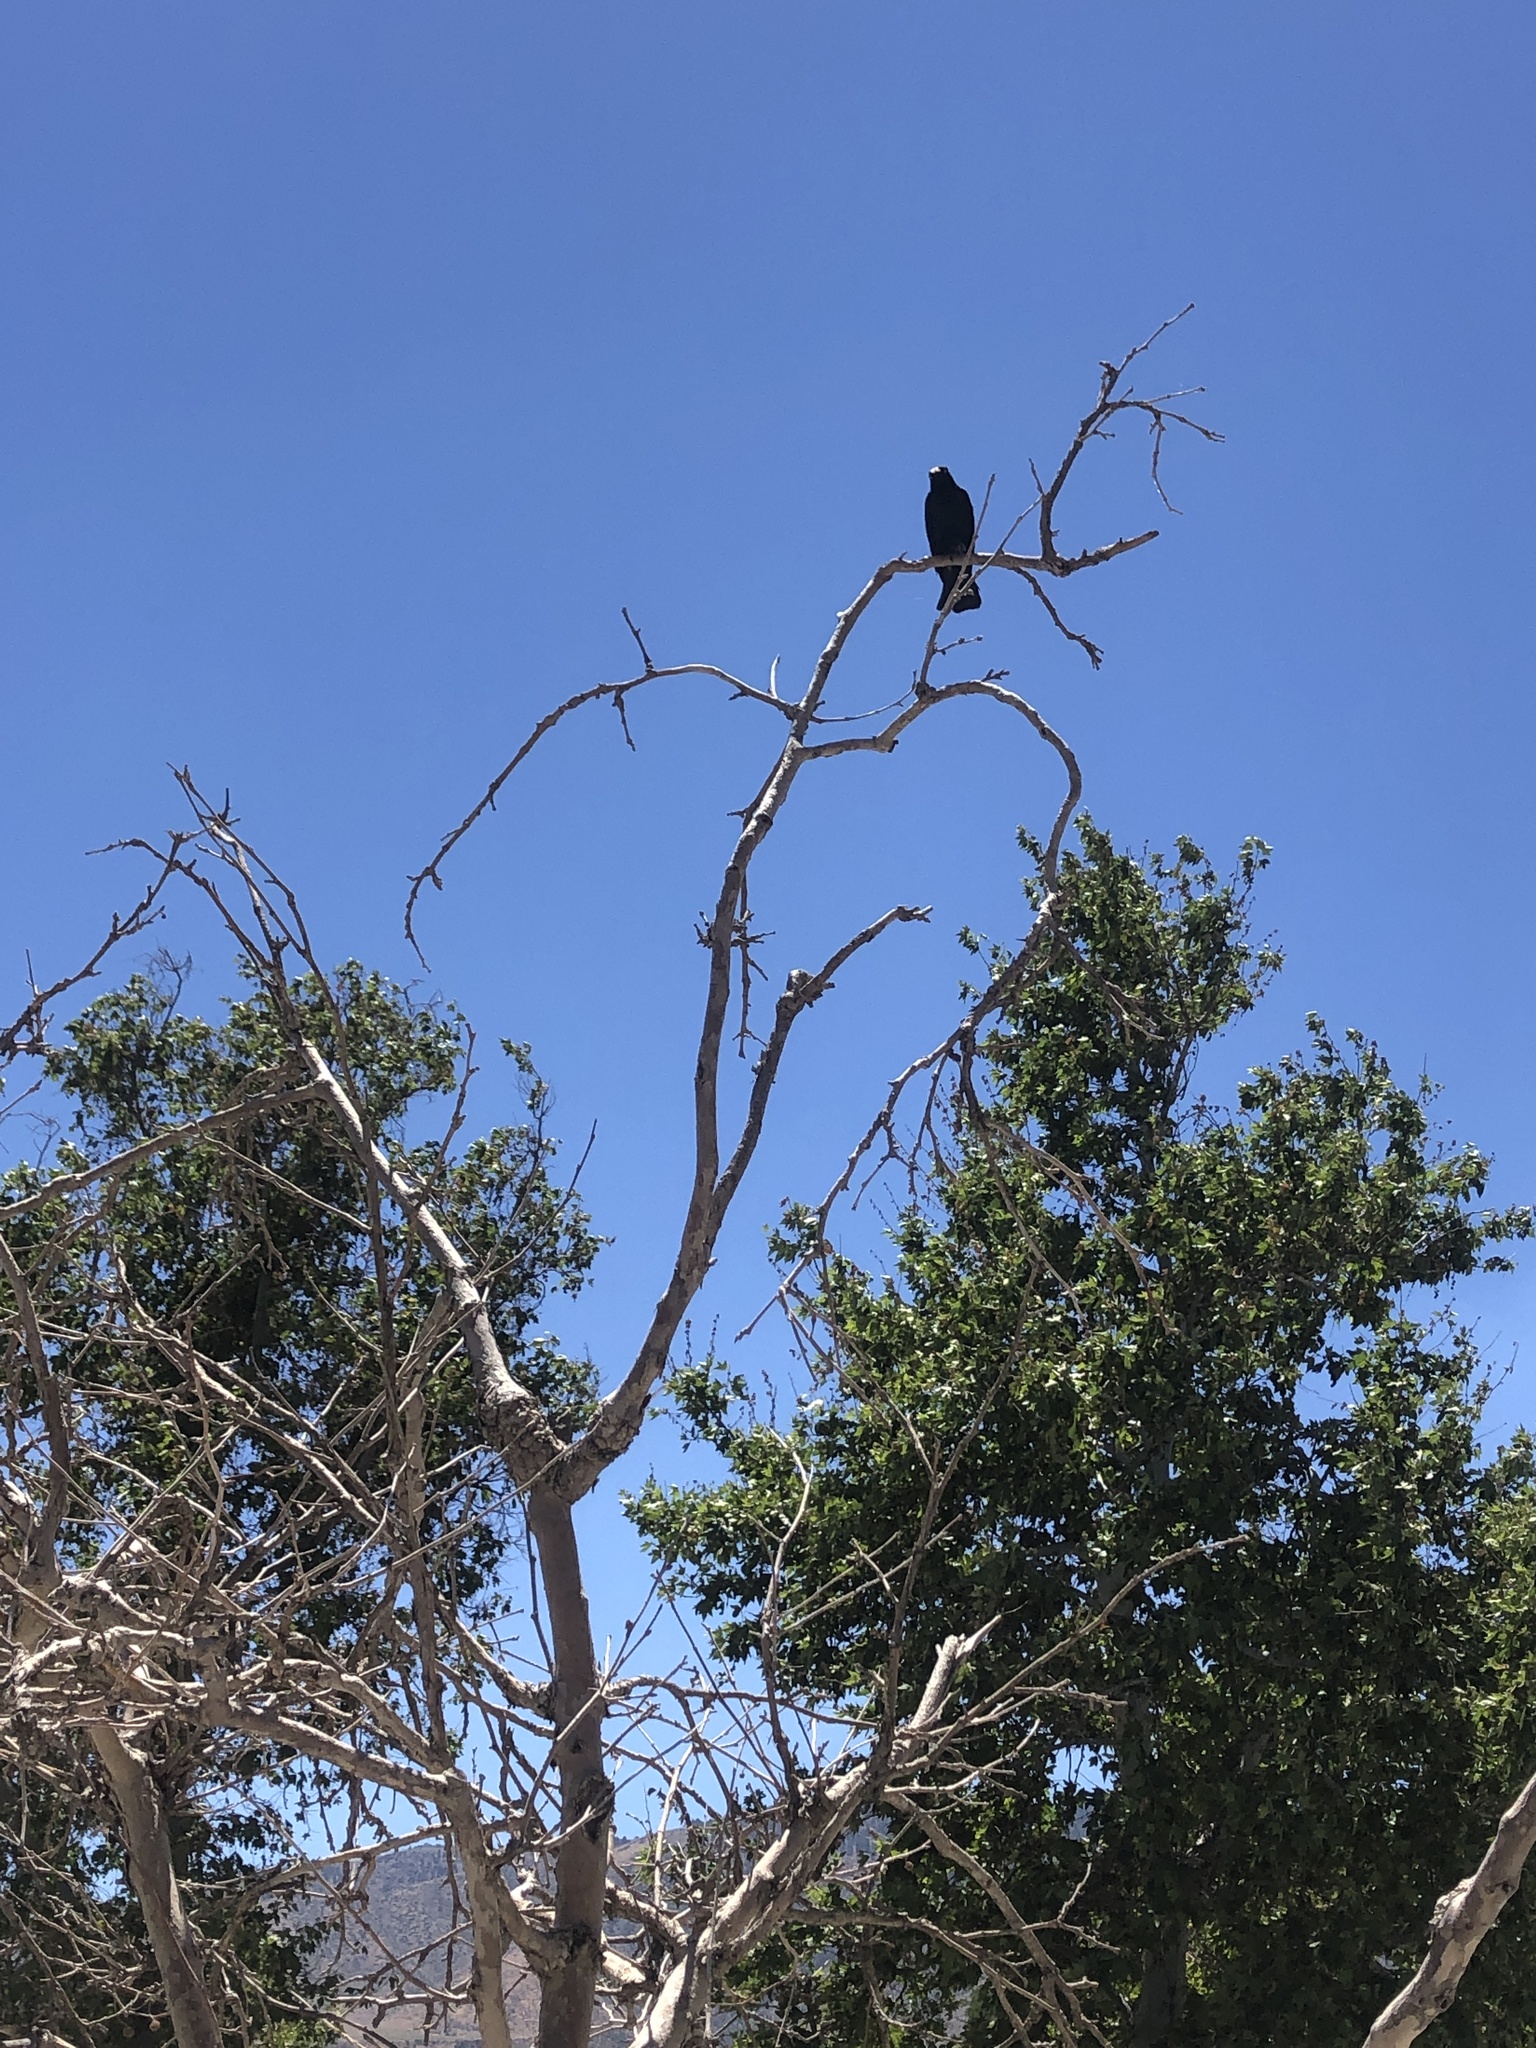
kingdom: Animalia
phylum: Chordata
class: Aves
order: Passeriformes
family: Icteridae
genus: Euphagus
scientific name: Euphagus cyanocephalus
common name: Brewer's blackbird
